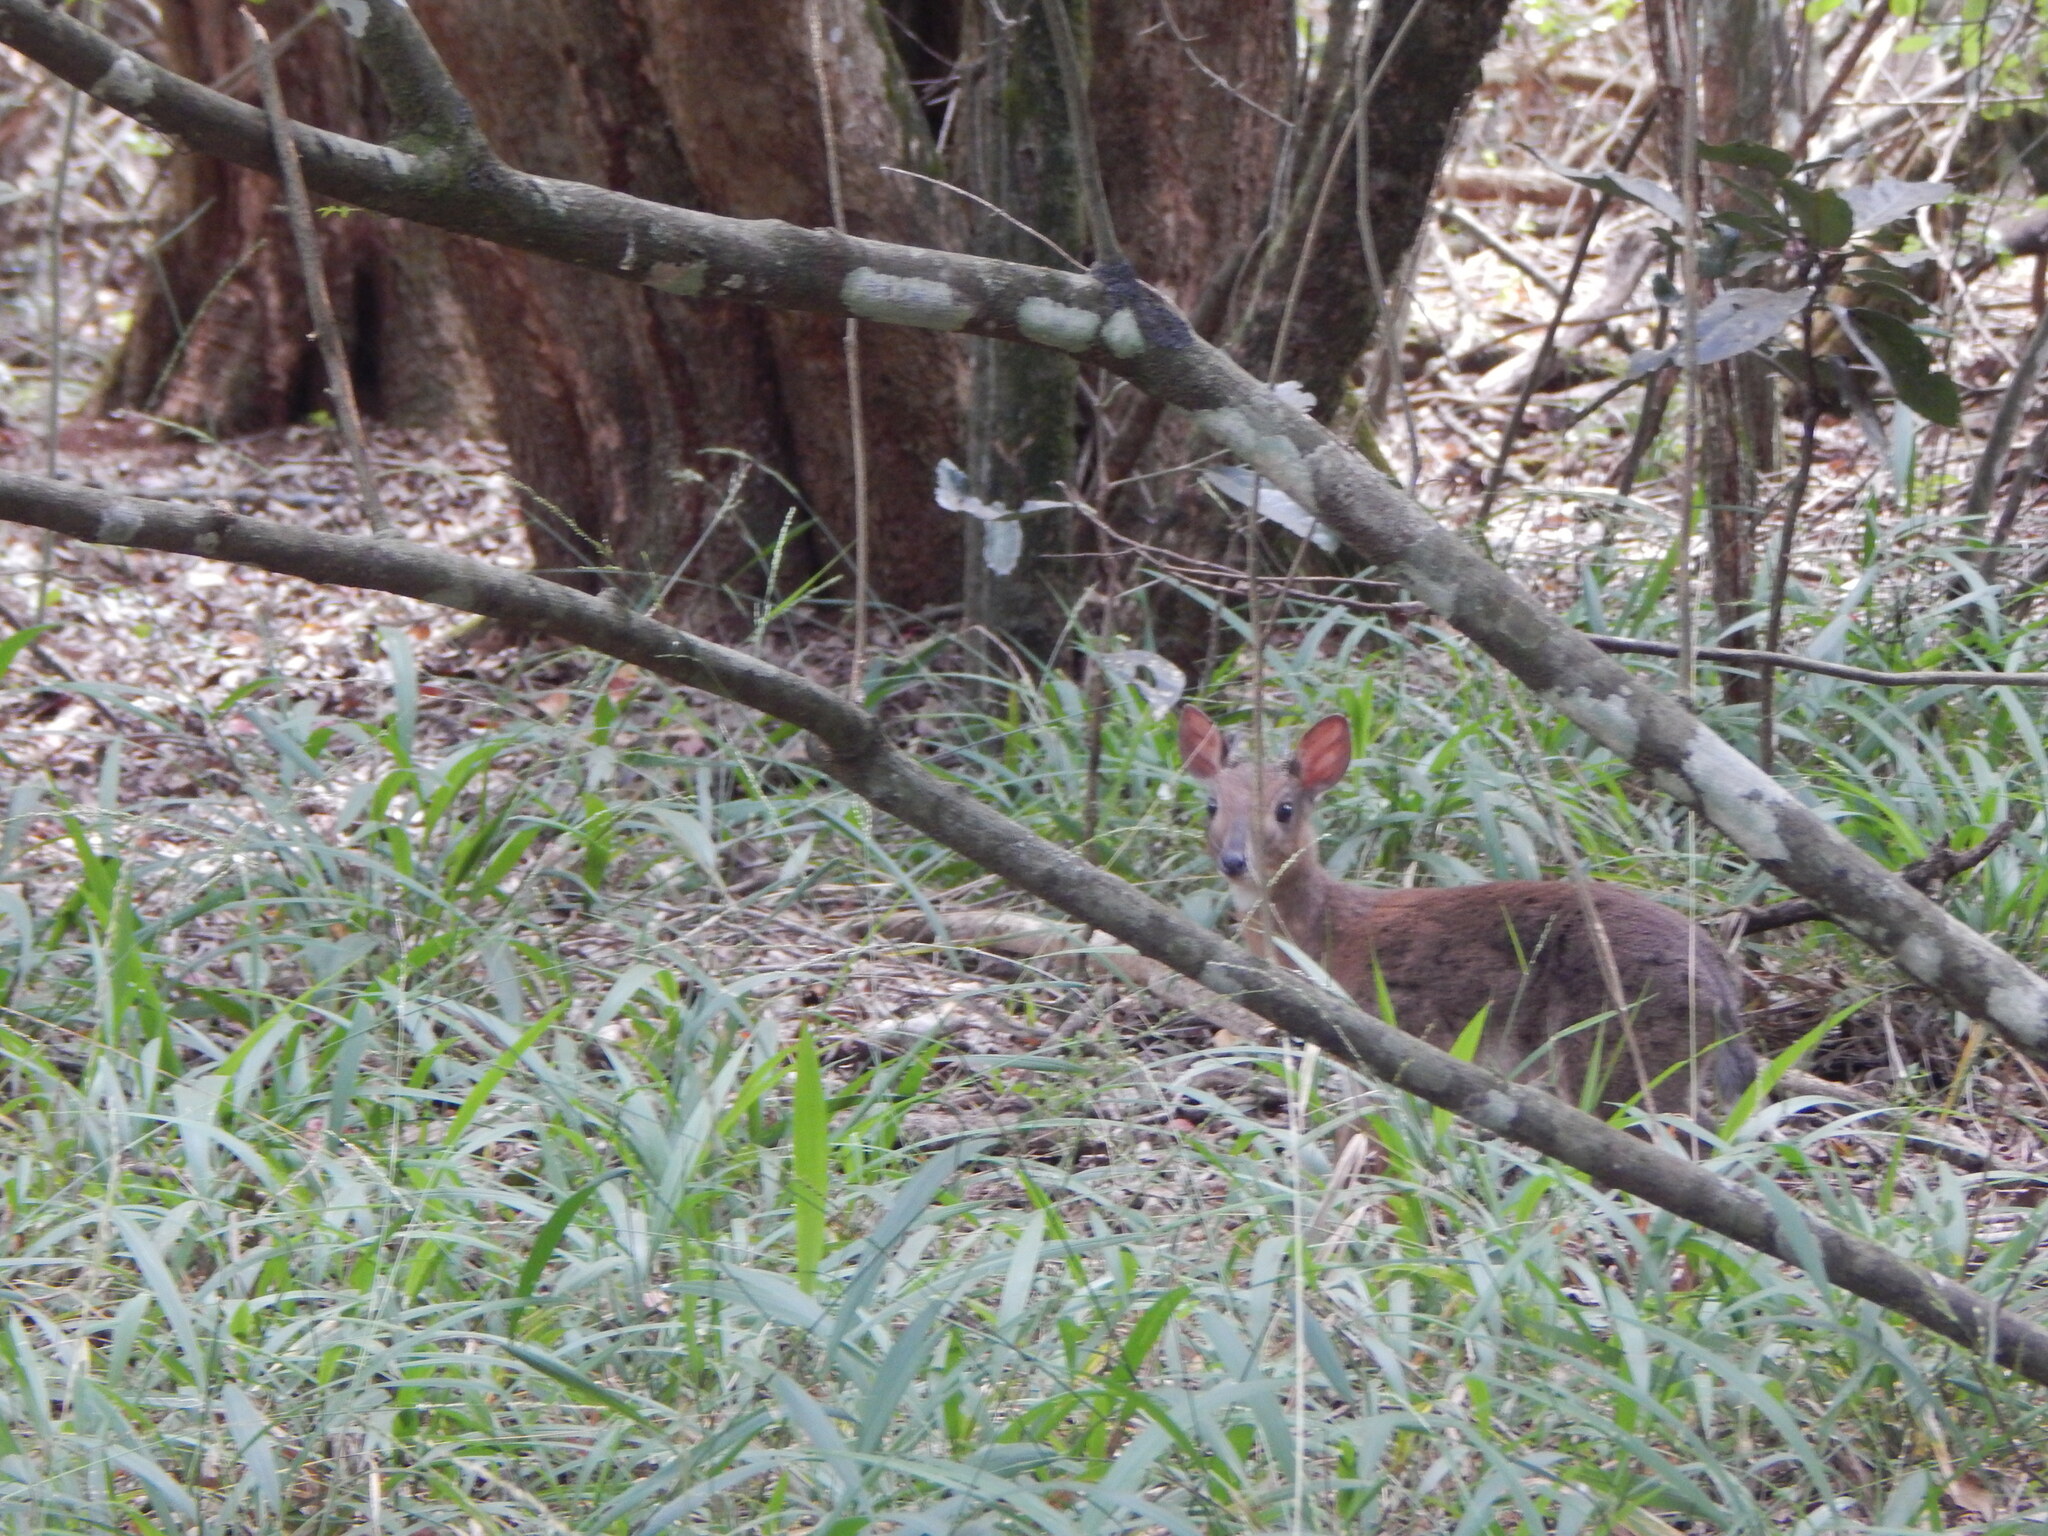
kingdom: Animalia
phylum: Chordata
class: Mammalia
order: Artiodactyla
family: Bovidae
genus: Neotragus
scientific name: Neotragus moschatus
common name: Suni
